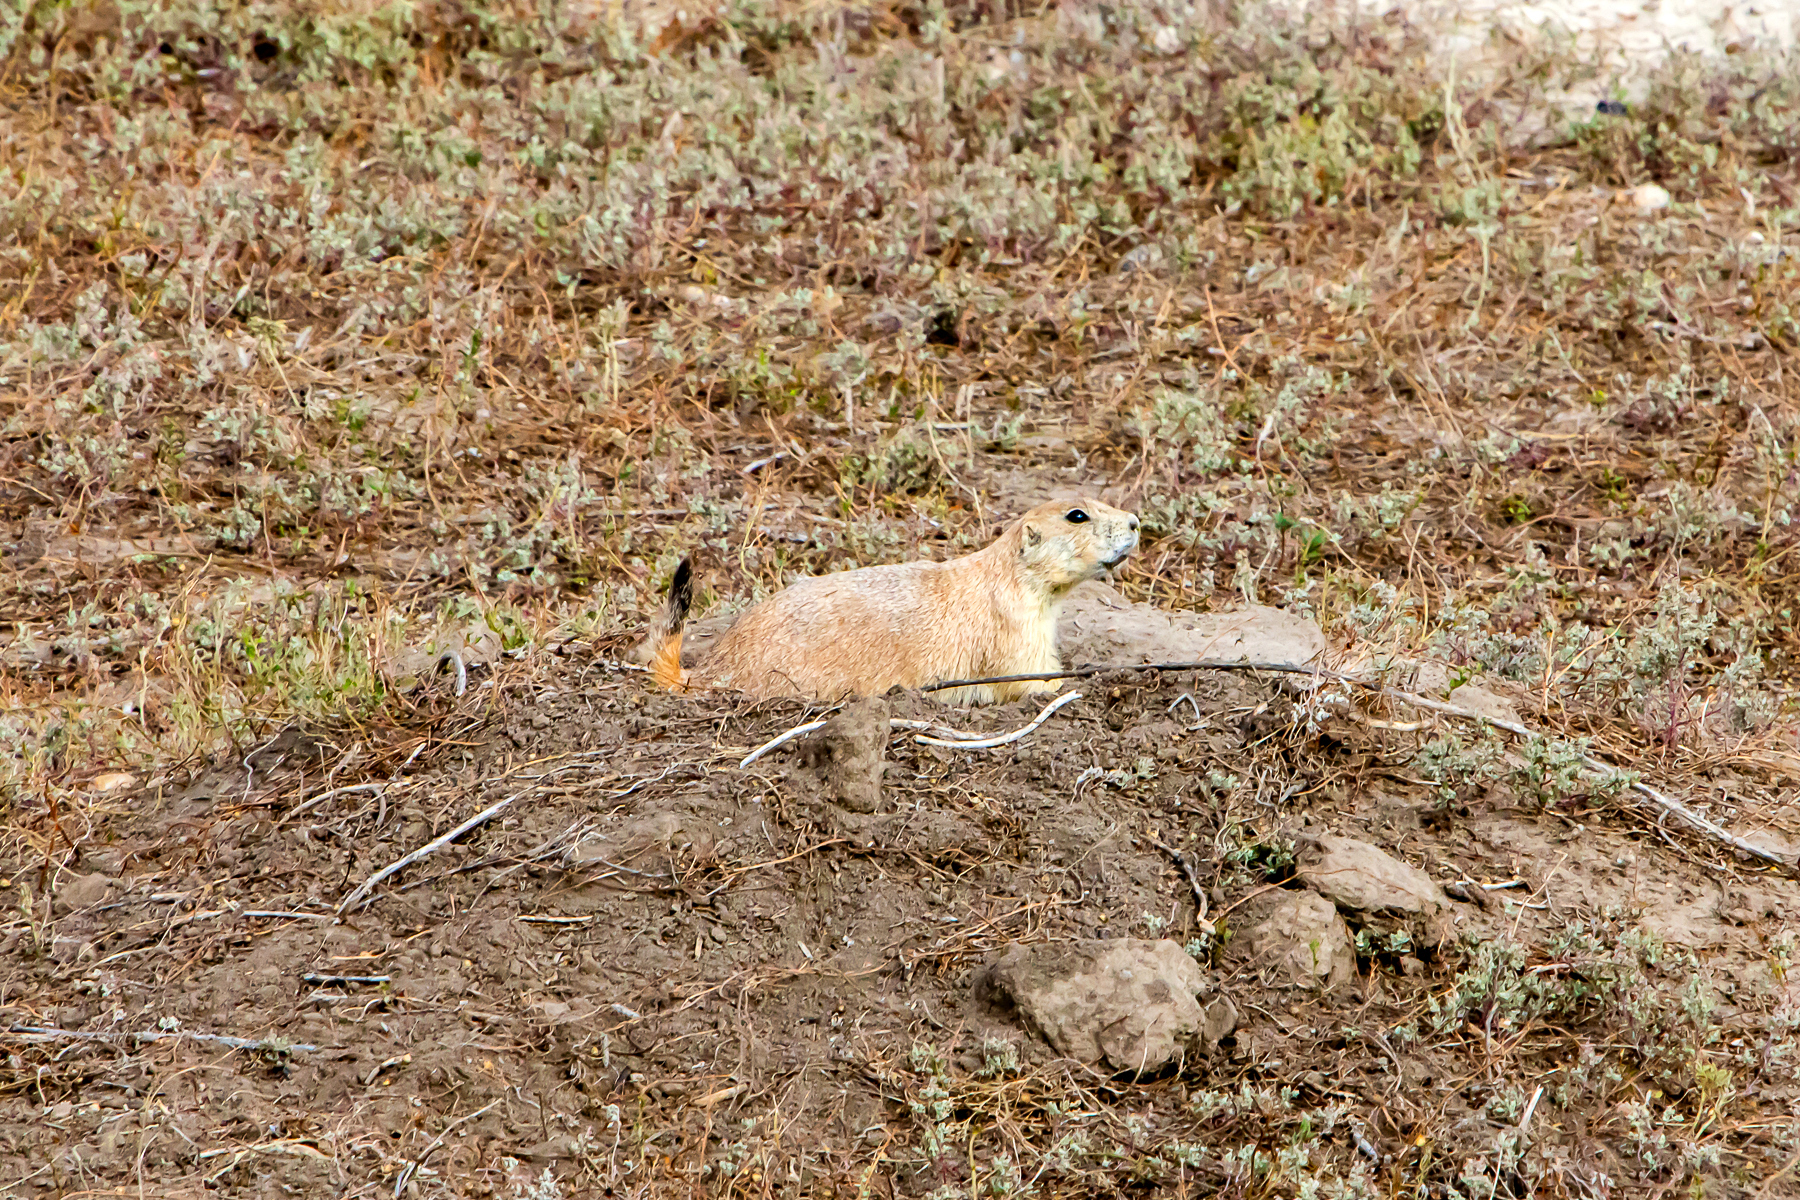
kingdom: Animalia
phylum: Chordata
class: Mammalia
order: Rodentia
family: Sciuridae
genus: Cynomys
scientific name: Cynomys ludovicianus
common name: Black-tailed prairie dog
